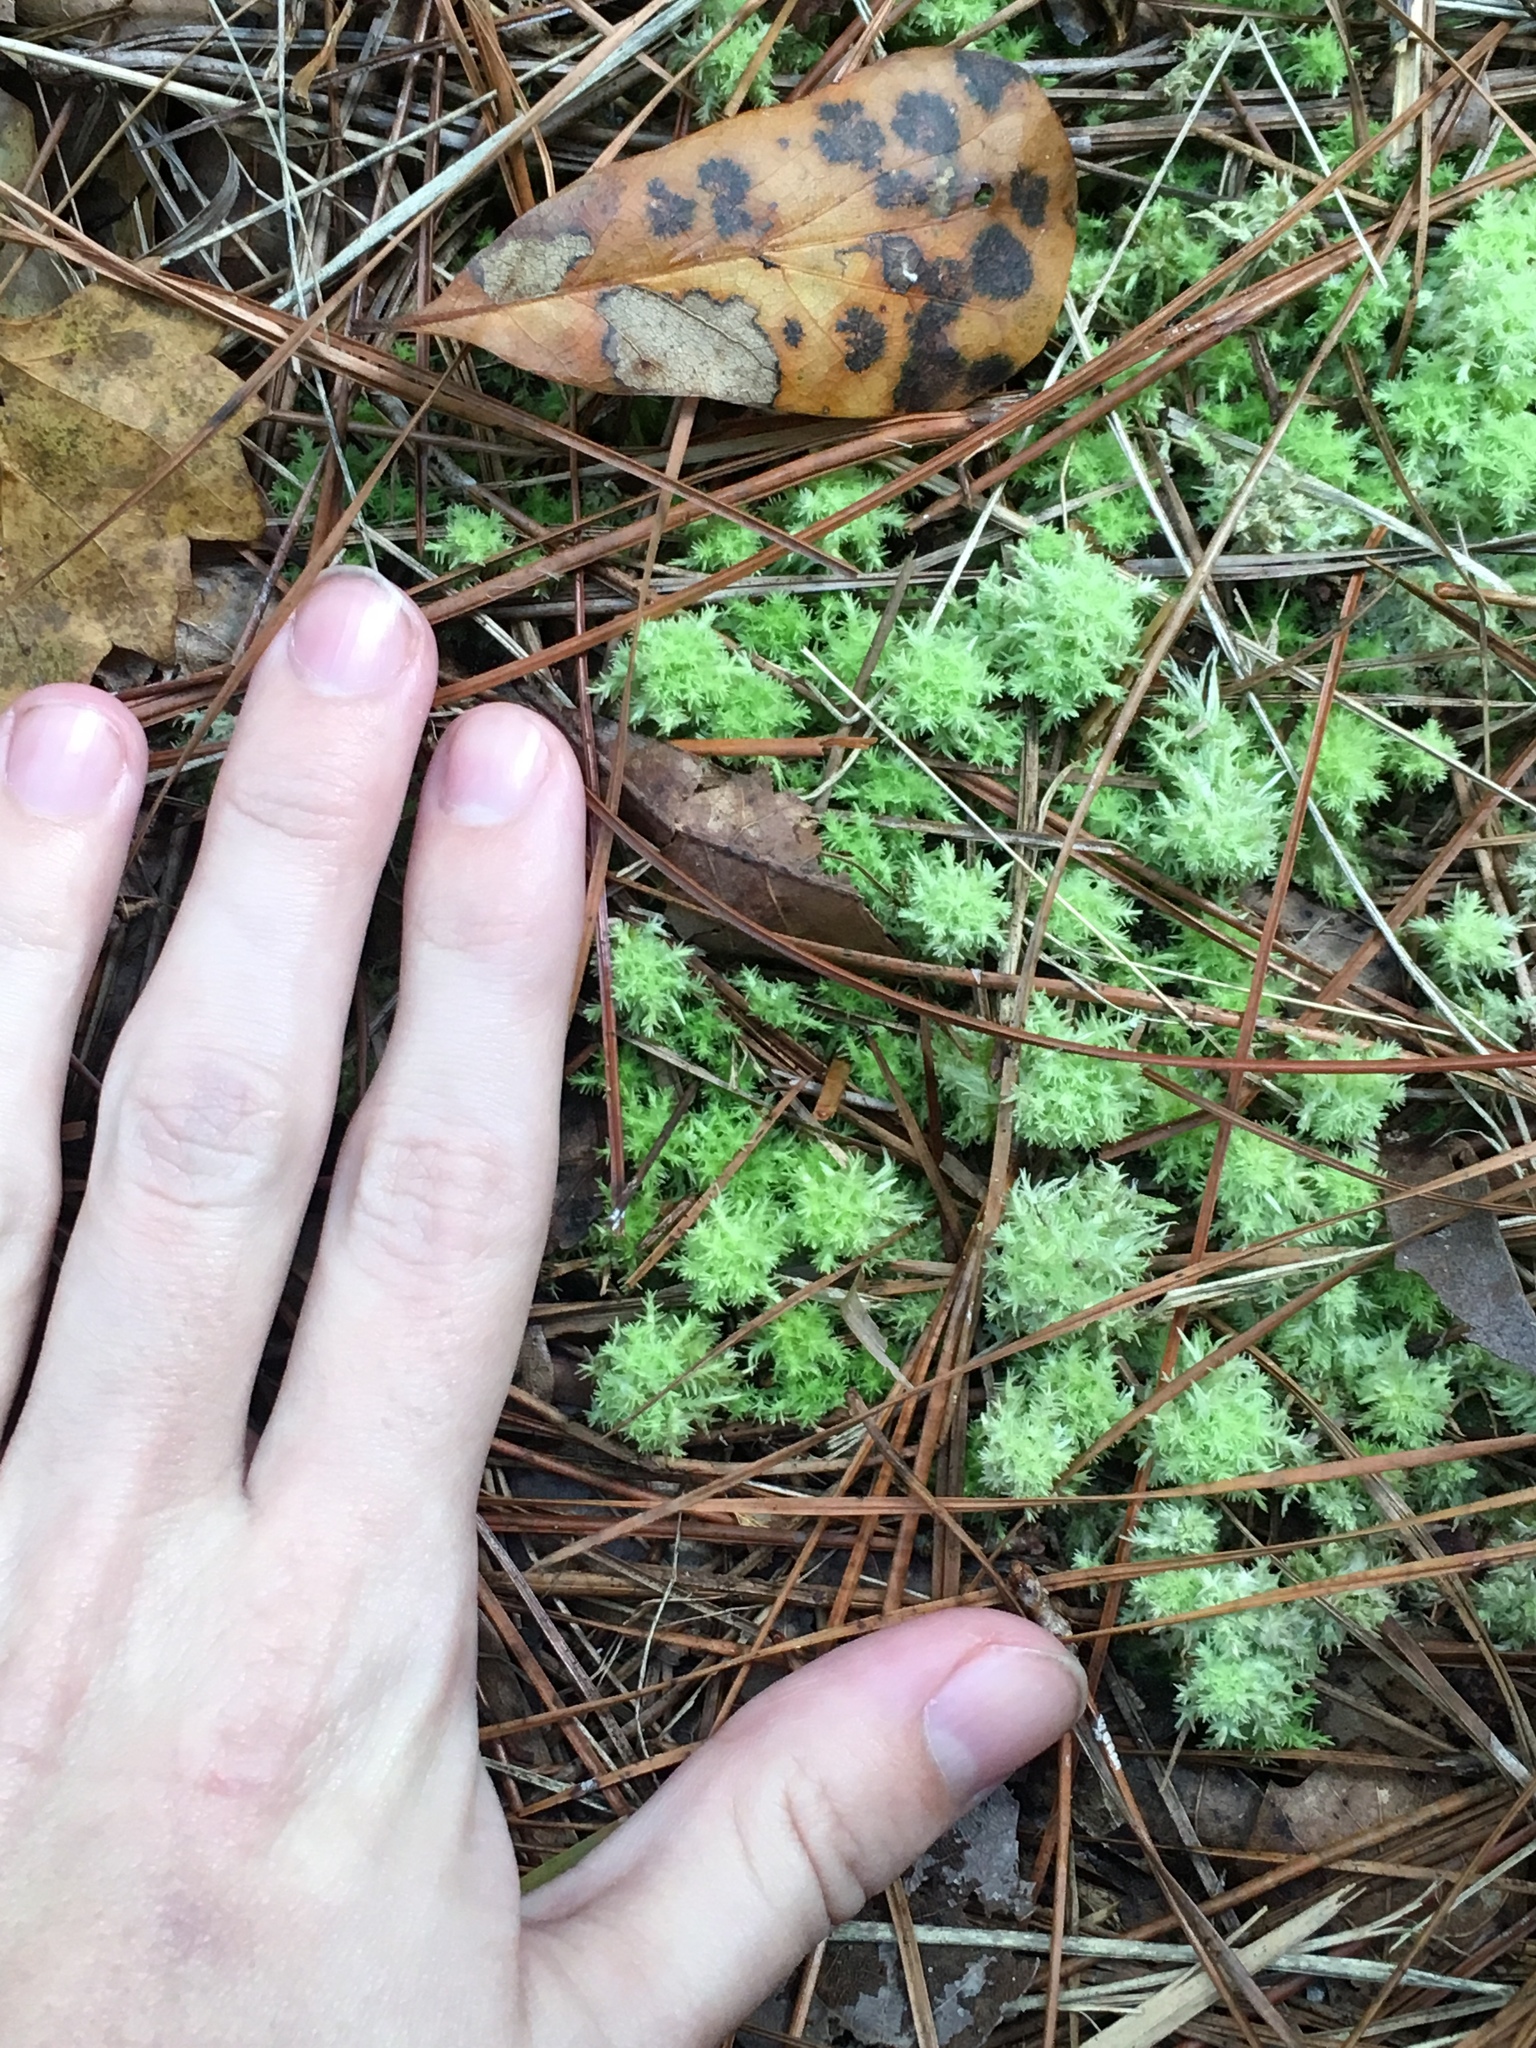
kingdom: Plantae
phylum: Bryophyta
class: Sphagnopsida
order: Sphagnales
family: Sphagnaceae
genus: Sphagnum
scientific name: Sphagnum strictum
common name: Pale bog-moss
